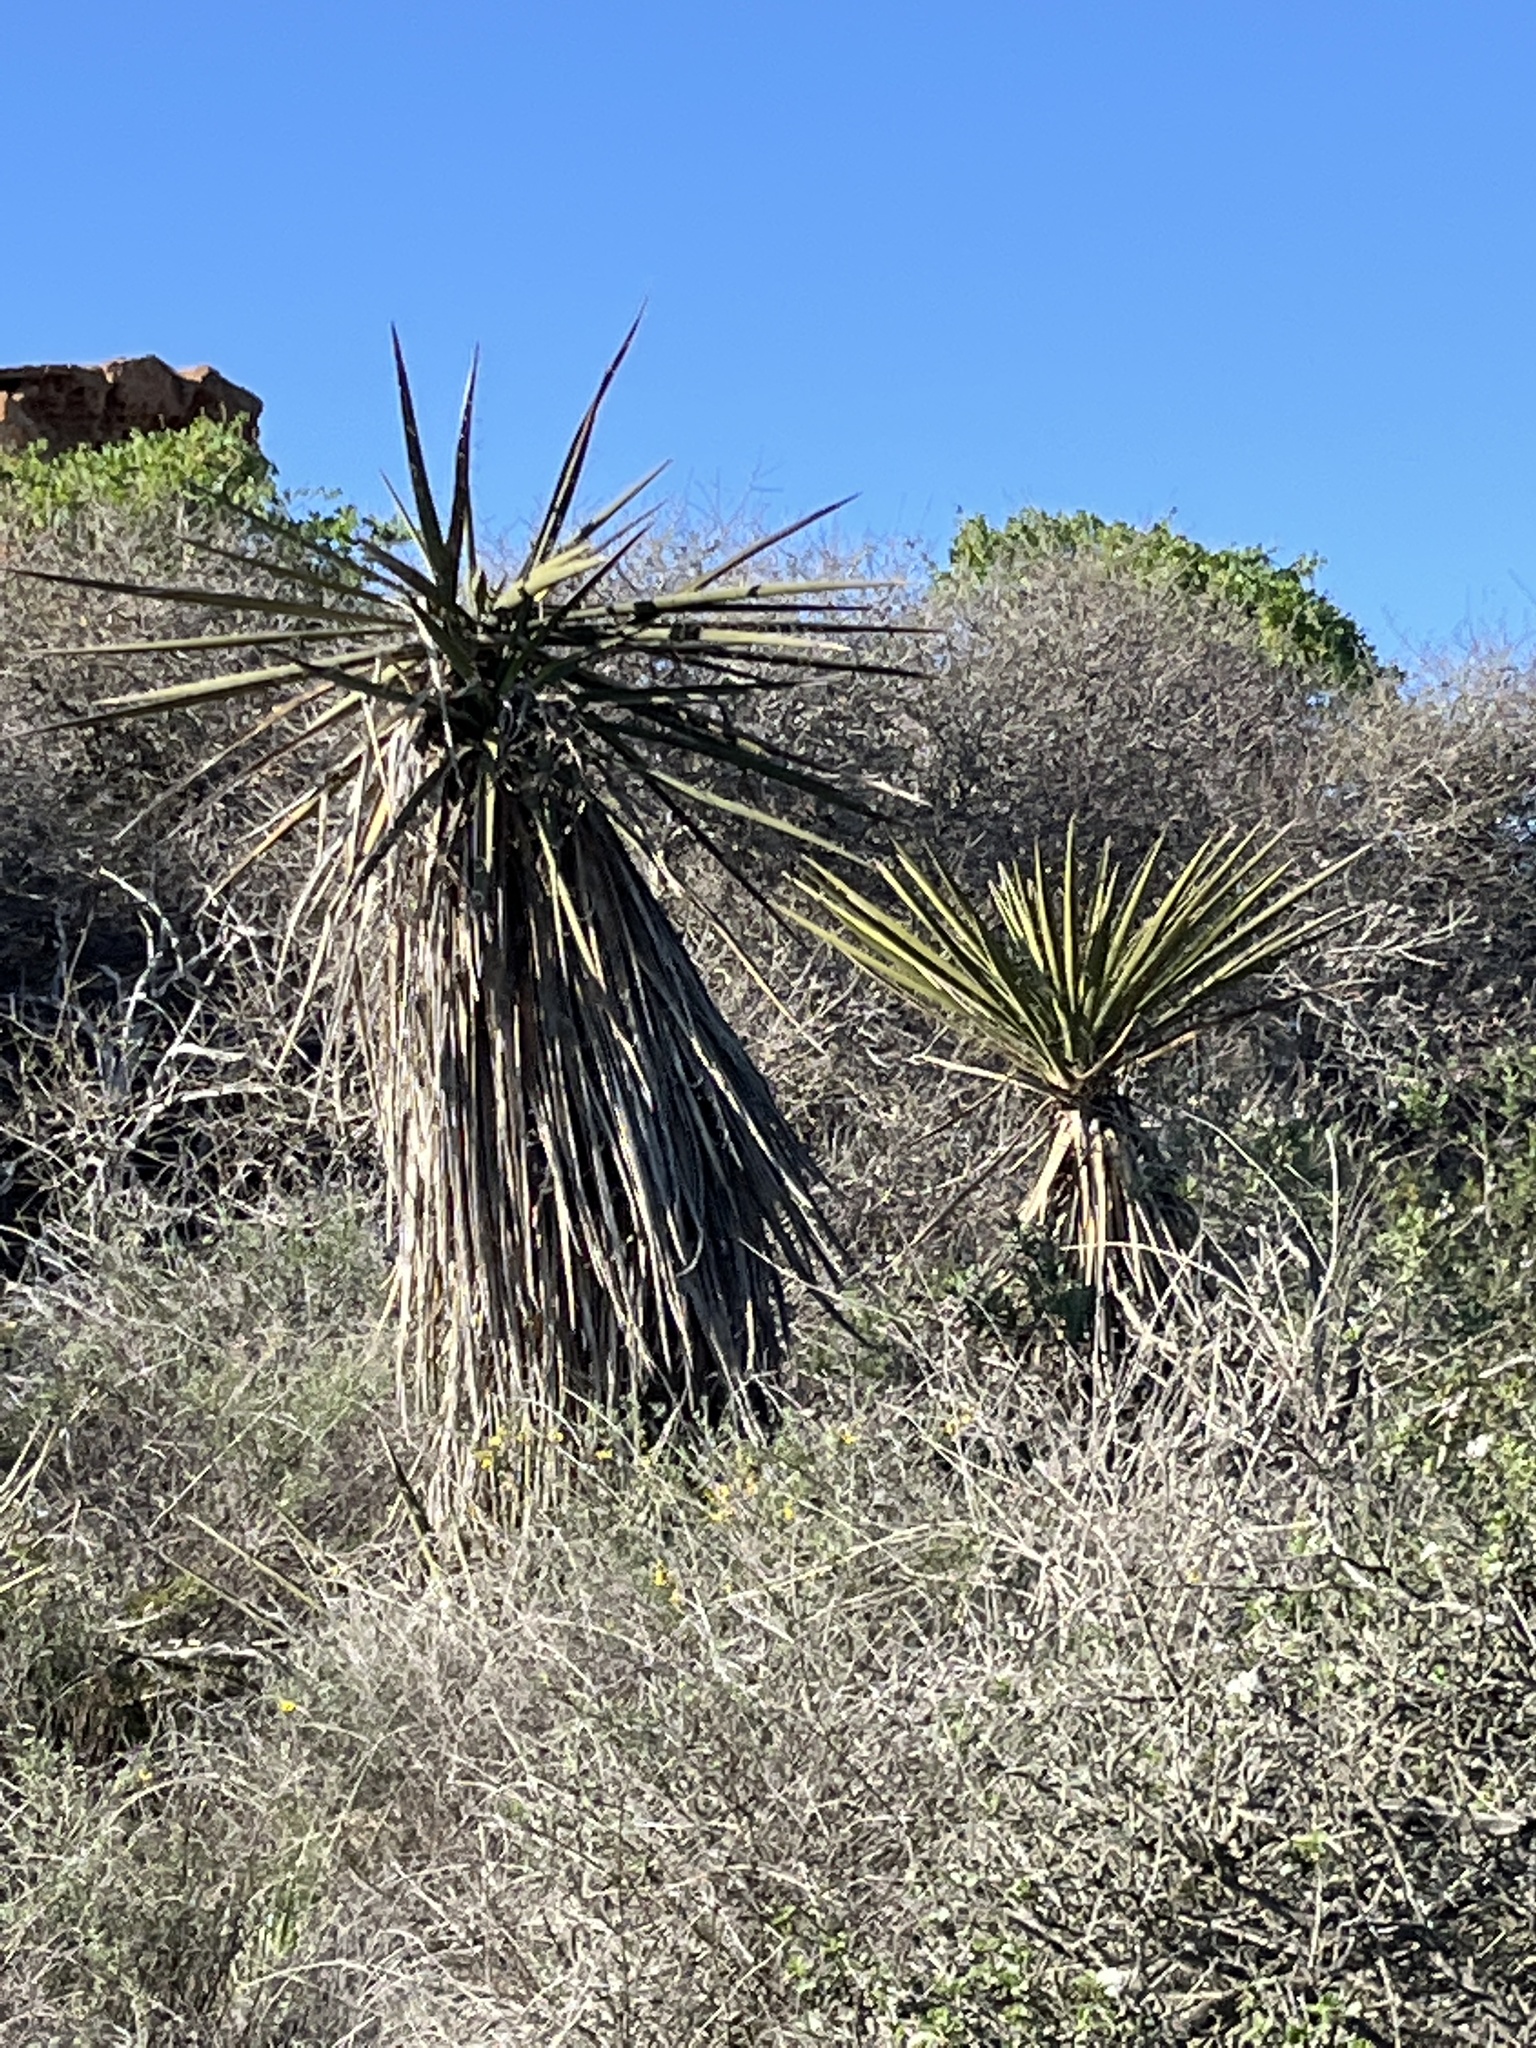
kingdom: Plantae
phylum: Tracheophyta
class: Liliopsida
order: Asparagales
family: Asparagaceae
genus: Yucca
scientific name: Yucca schidigera
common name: Mojave yucca
